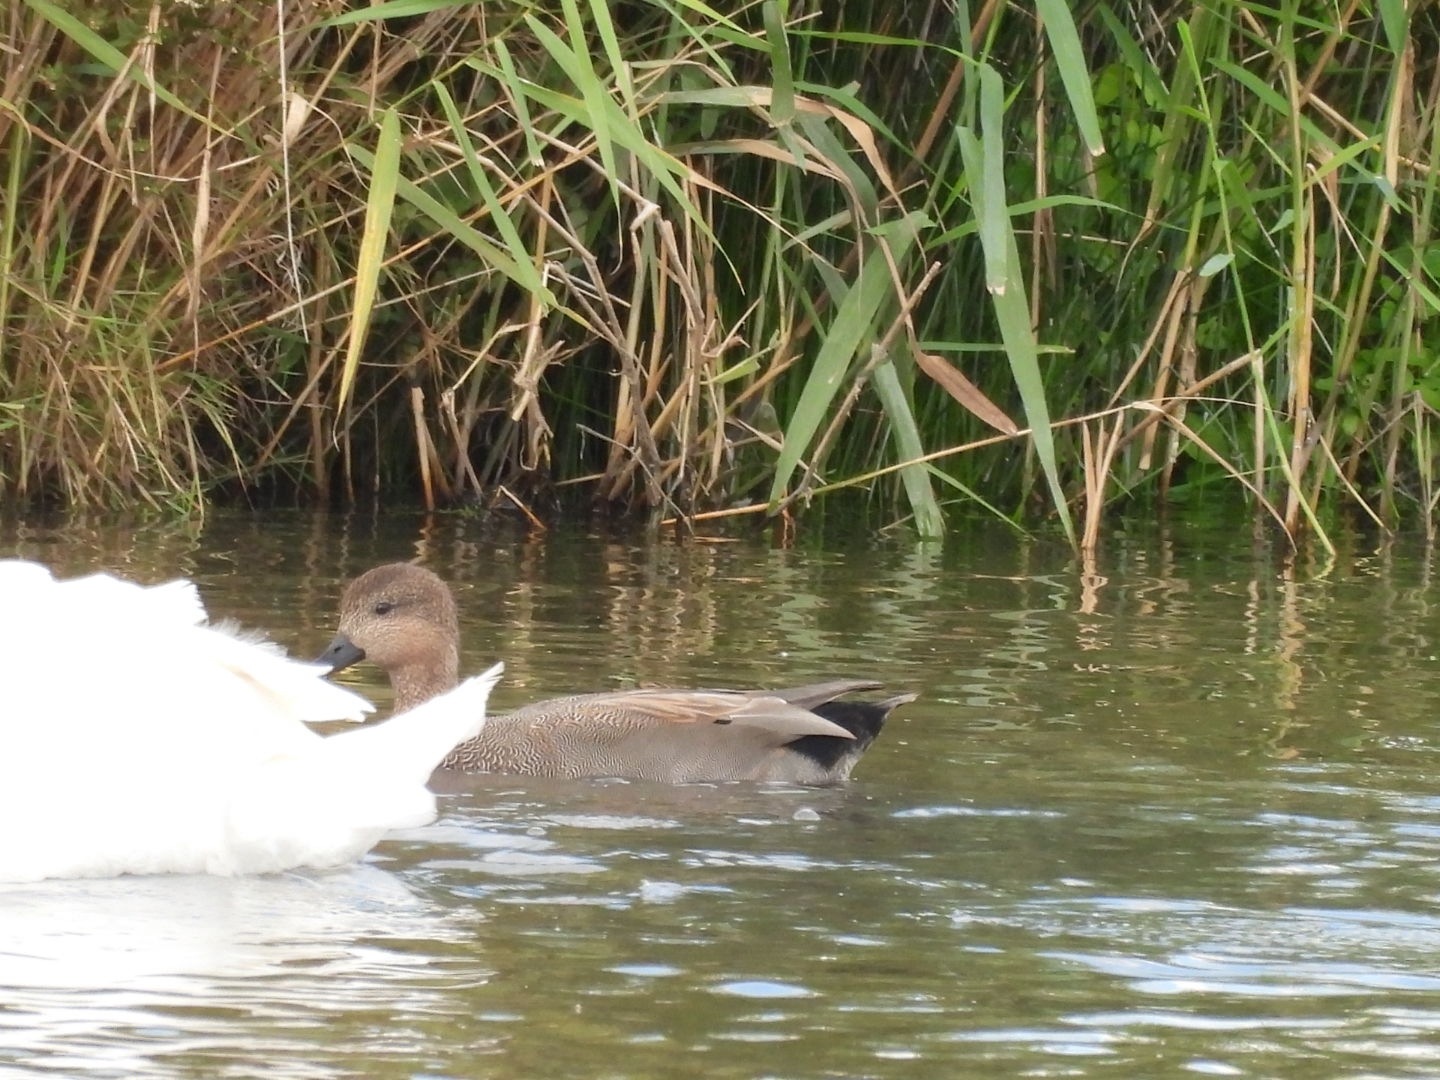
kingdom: Animalia
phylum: Chordata
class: Aves
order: Anseriformes
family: Anatidae
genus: Mareca
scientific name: Mareca strepera
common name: Gadwall
